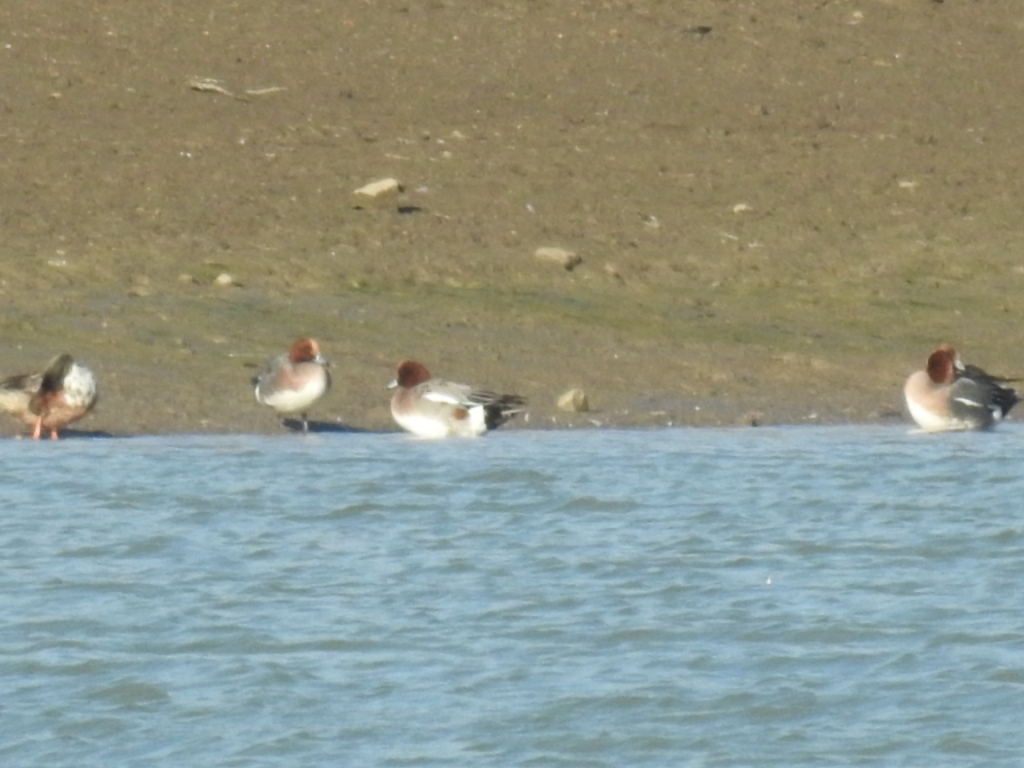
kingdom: Animalia
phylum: Chordata
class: Aves
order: Anseriformes
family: Anatidae
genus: Mareca
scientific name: Mareca penelope
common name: Eurasian wigeon
